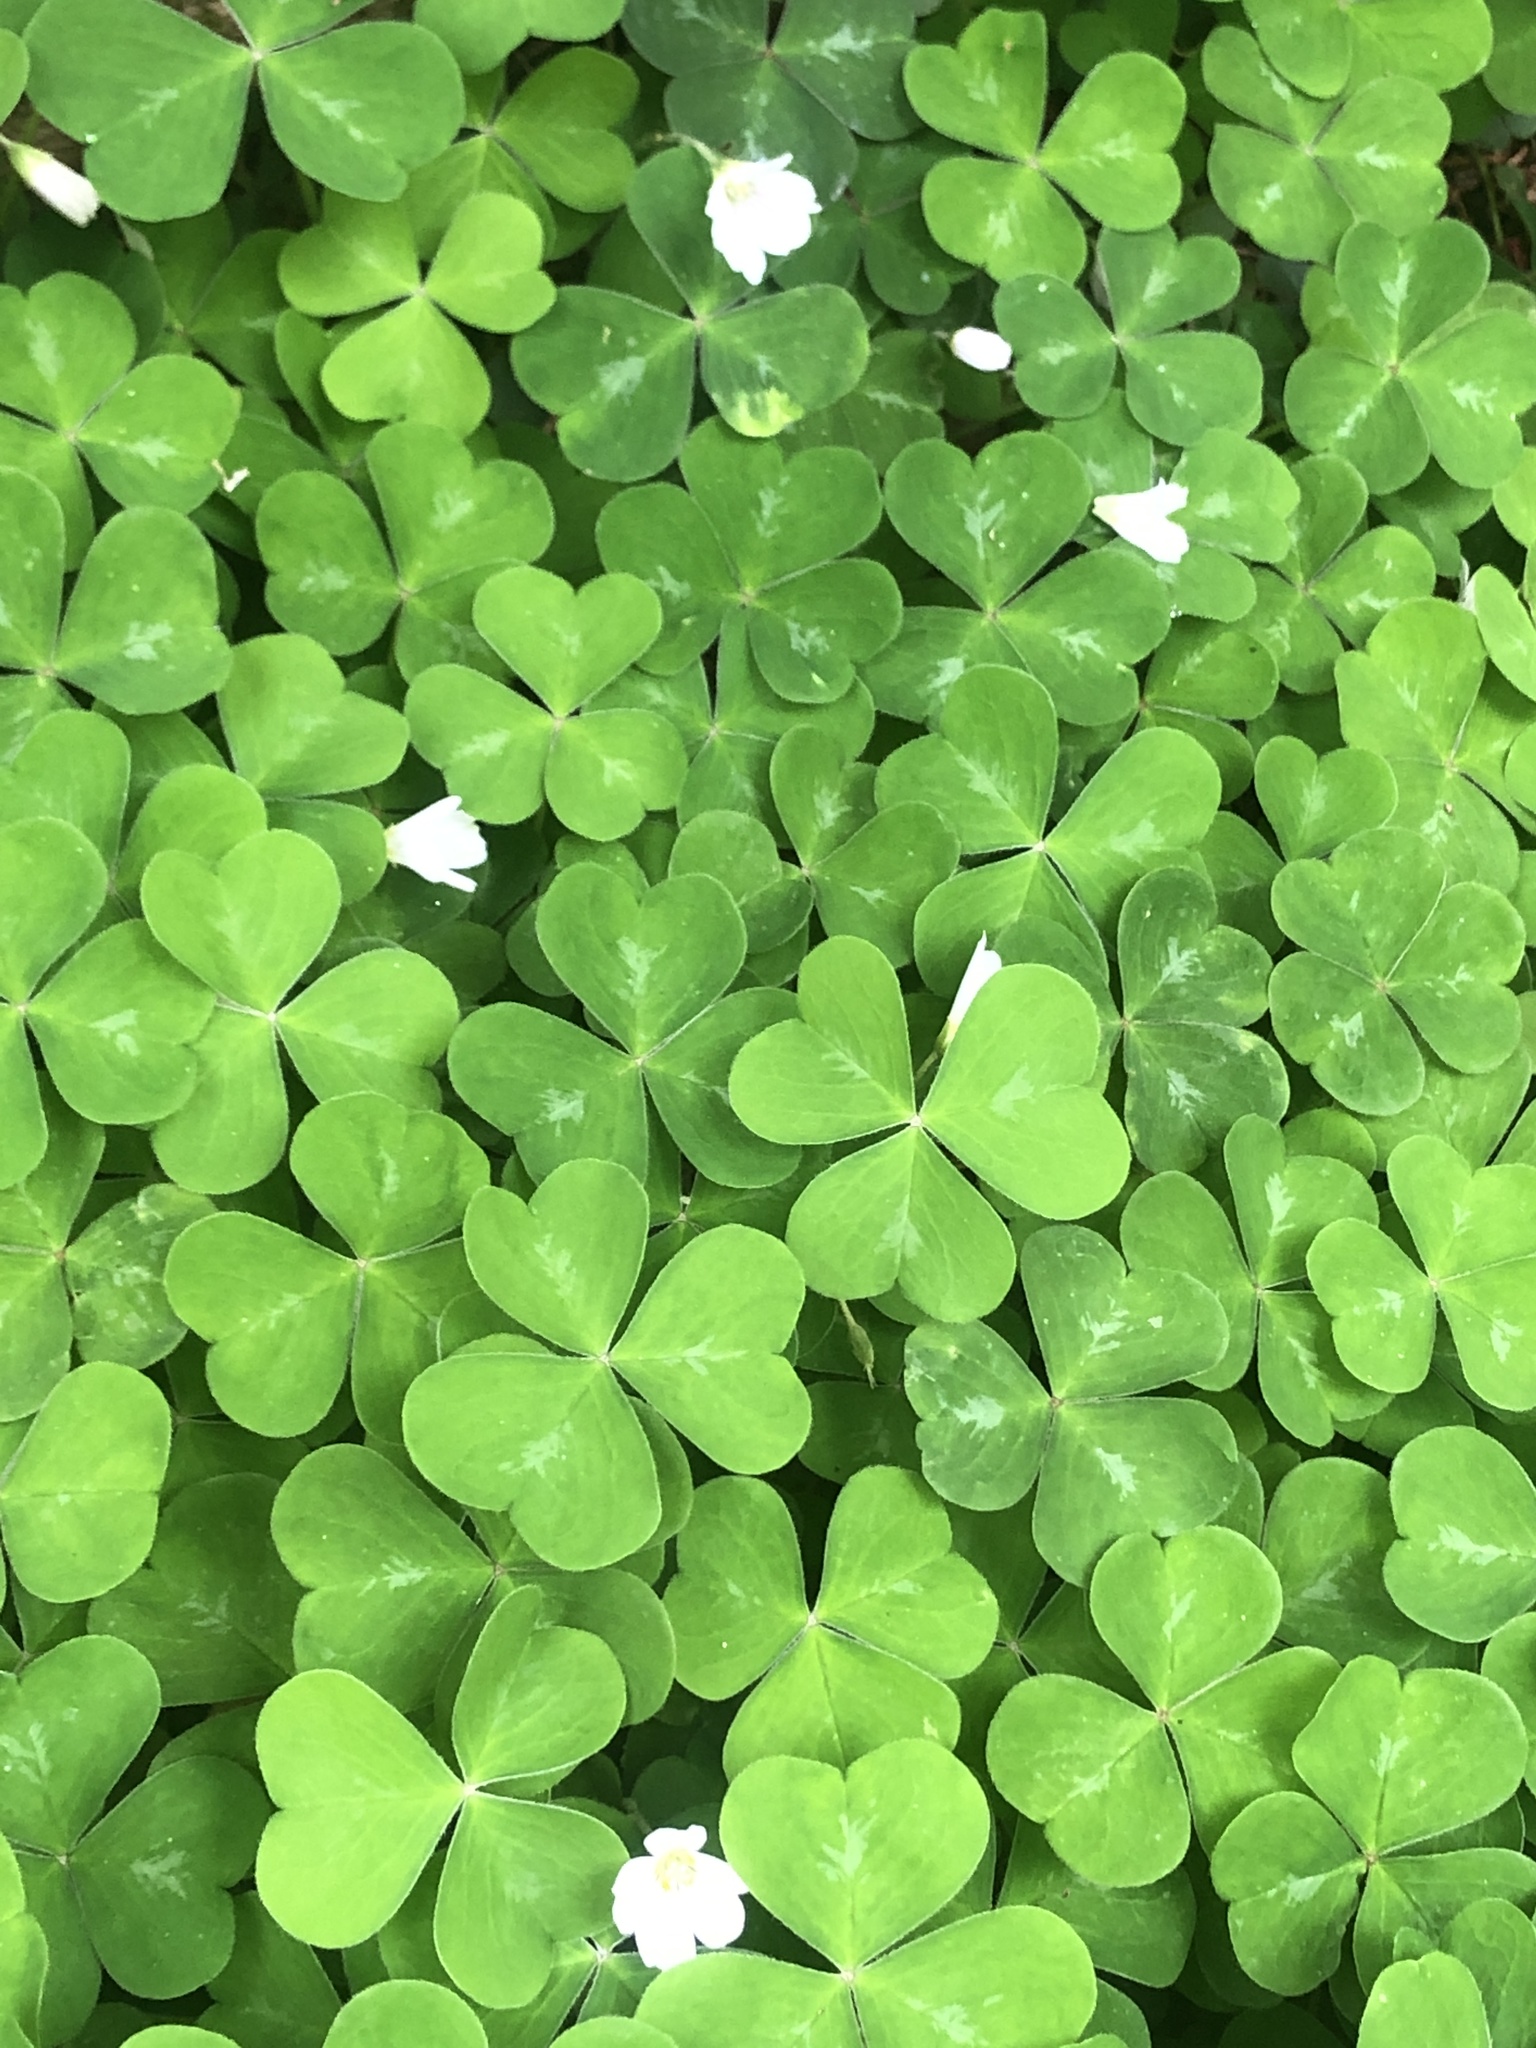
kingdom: Plantae
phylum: Tracheophyta
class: Magnoliopsida
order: Oxalidales
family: Oxalidaceae
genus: Oxalis
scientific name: Oxalis oregana
